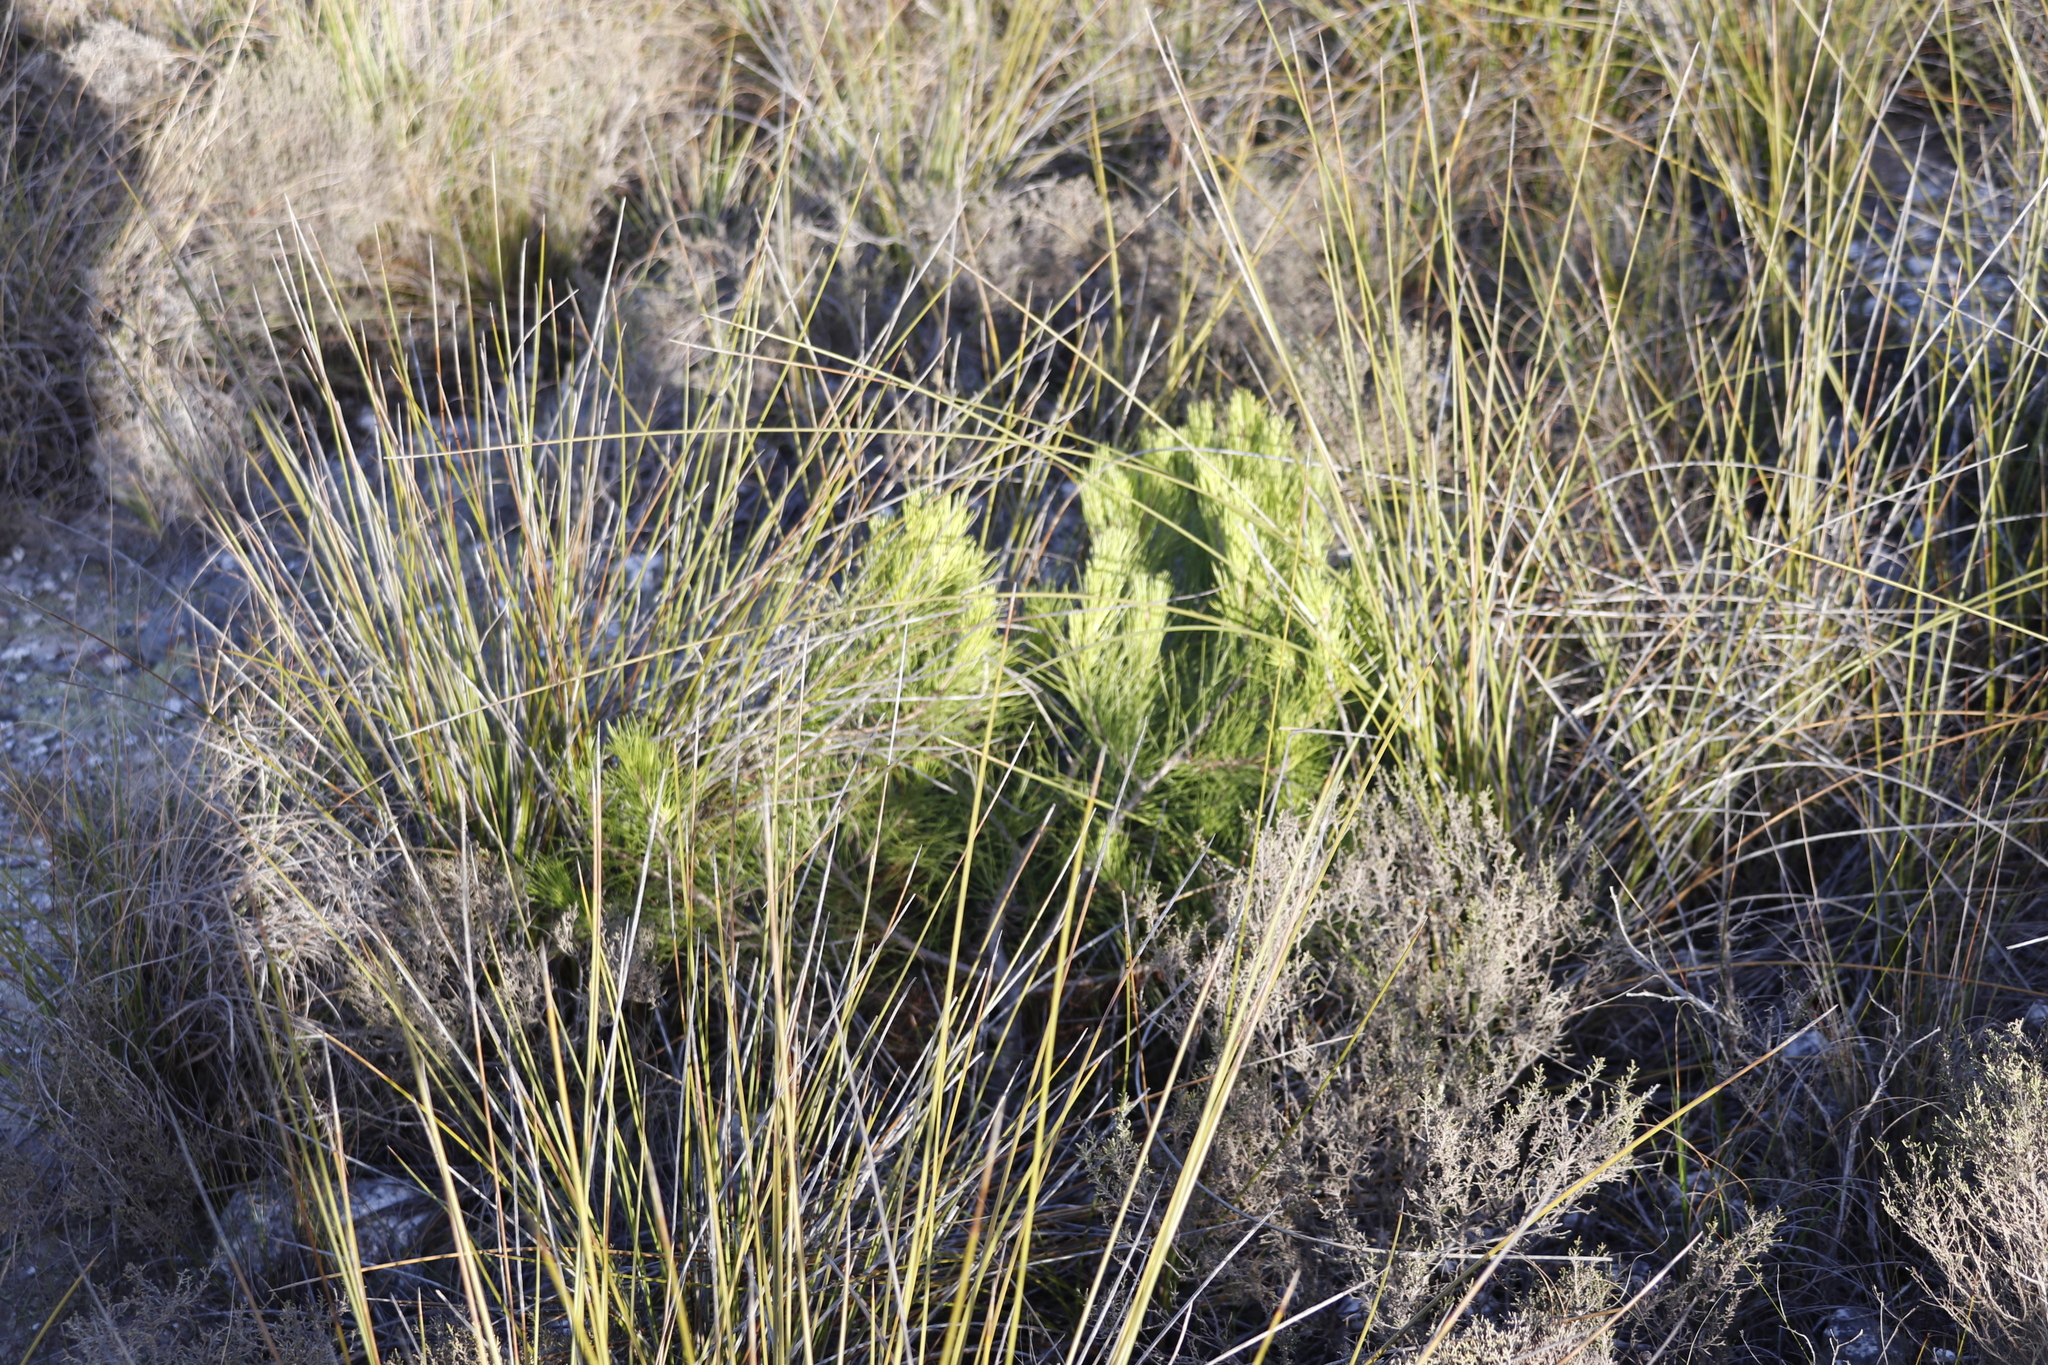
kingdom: Plantae
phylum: Tracheophyta
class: Pinopsida
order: Pinales
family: Pinaceae
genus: Pinus
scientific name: Pinus halepensis
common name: Aleppo pine
